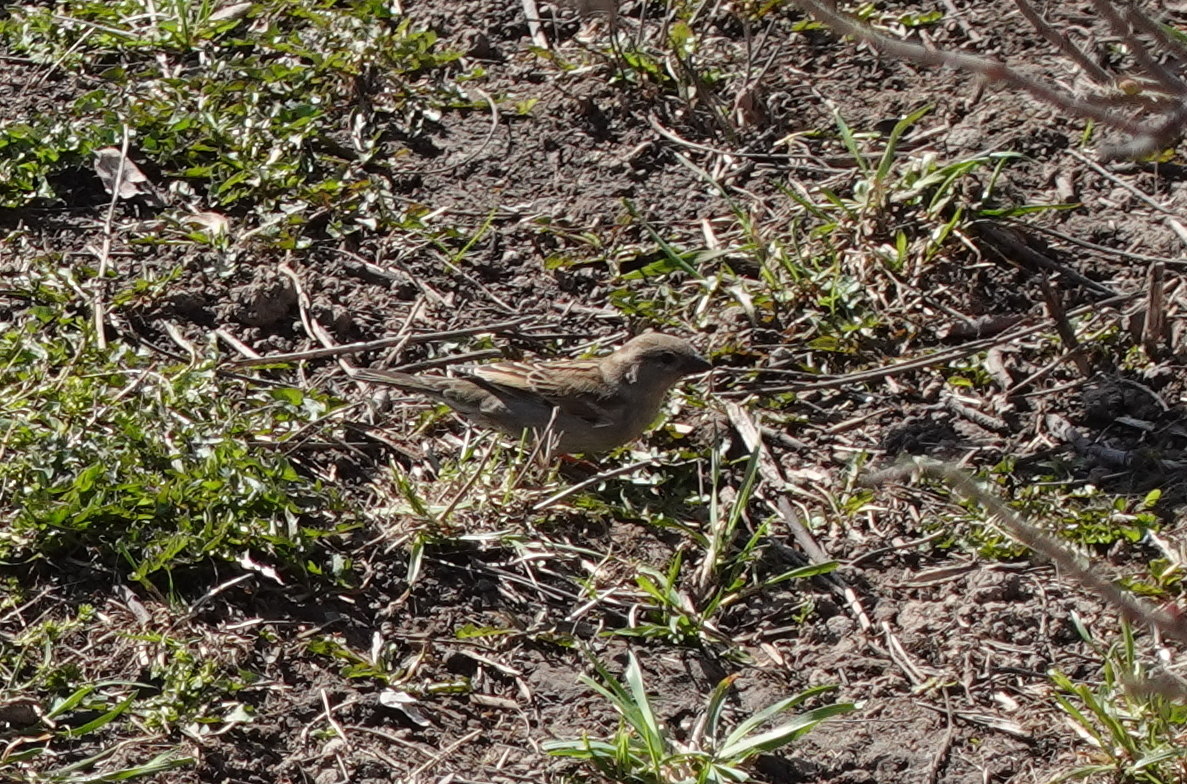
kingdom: Animalia
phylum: Chordata
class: Aves
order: Passeriformes
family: Passeridae
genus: Passer
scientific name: Passer domesticus
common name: House sparrow
